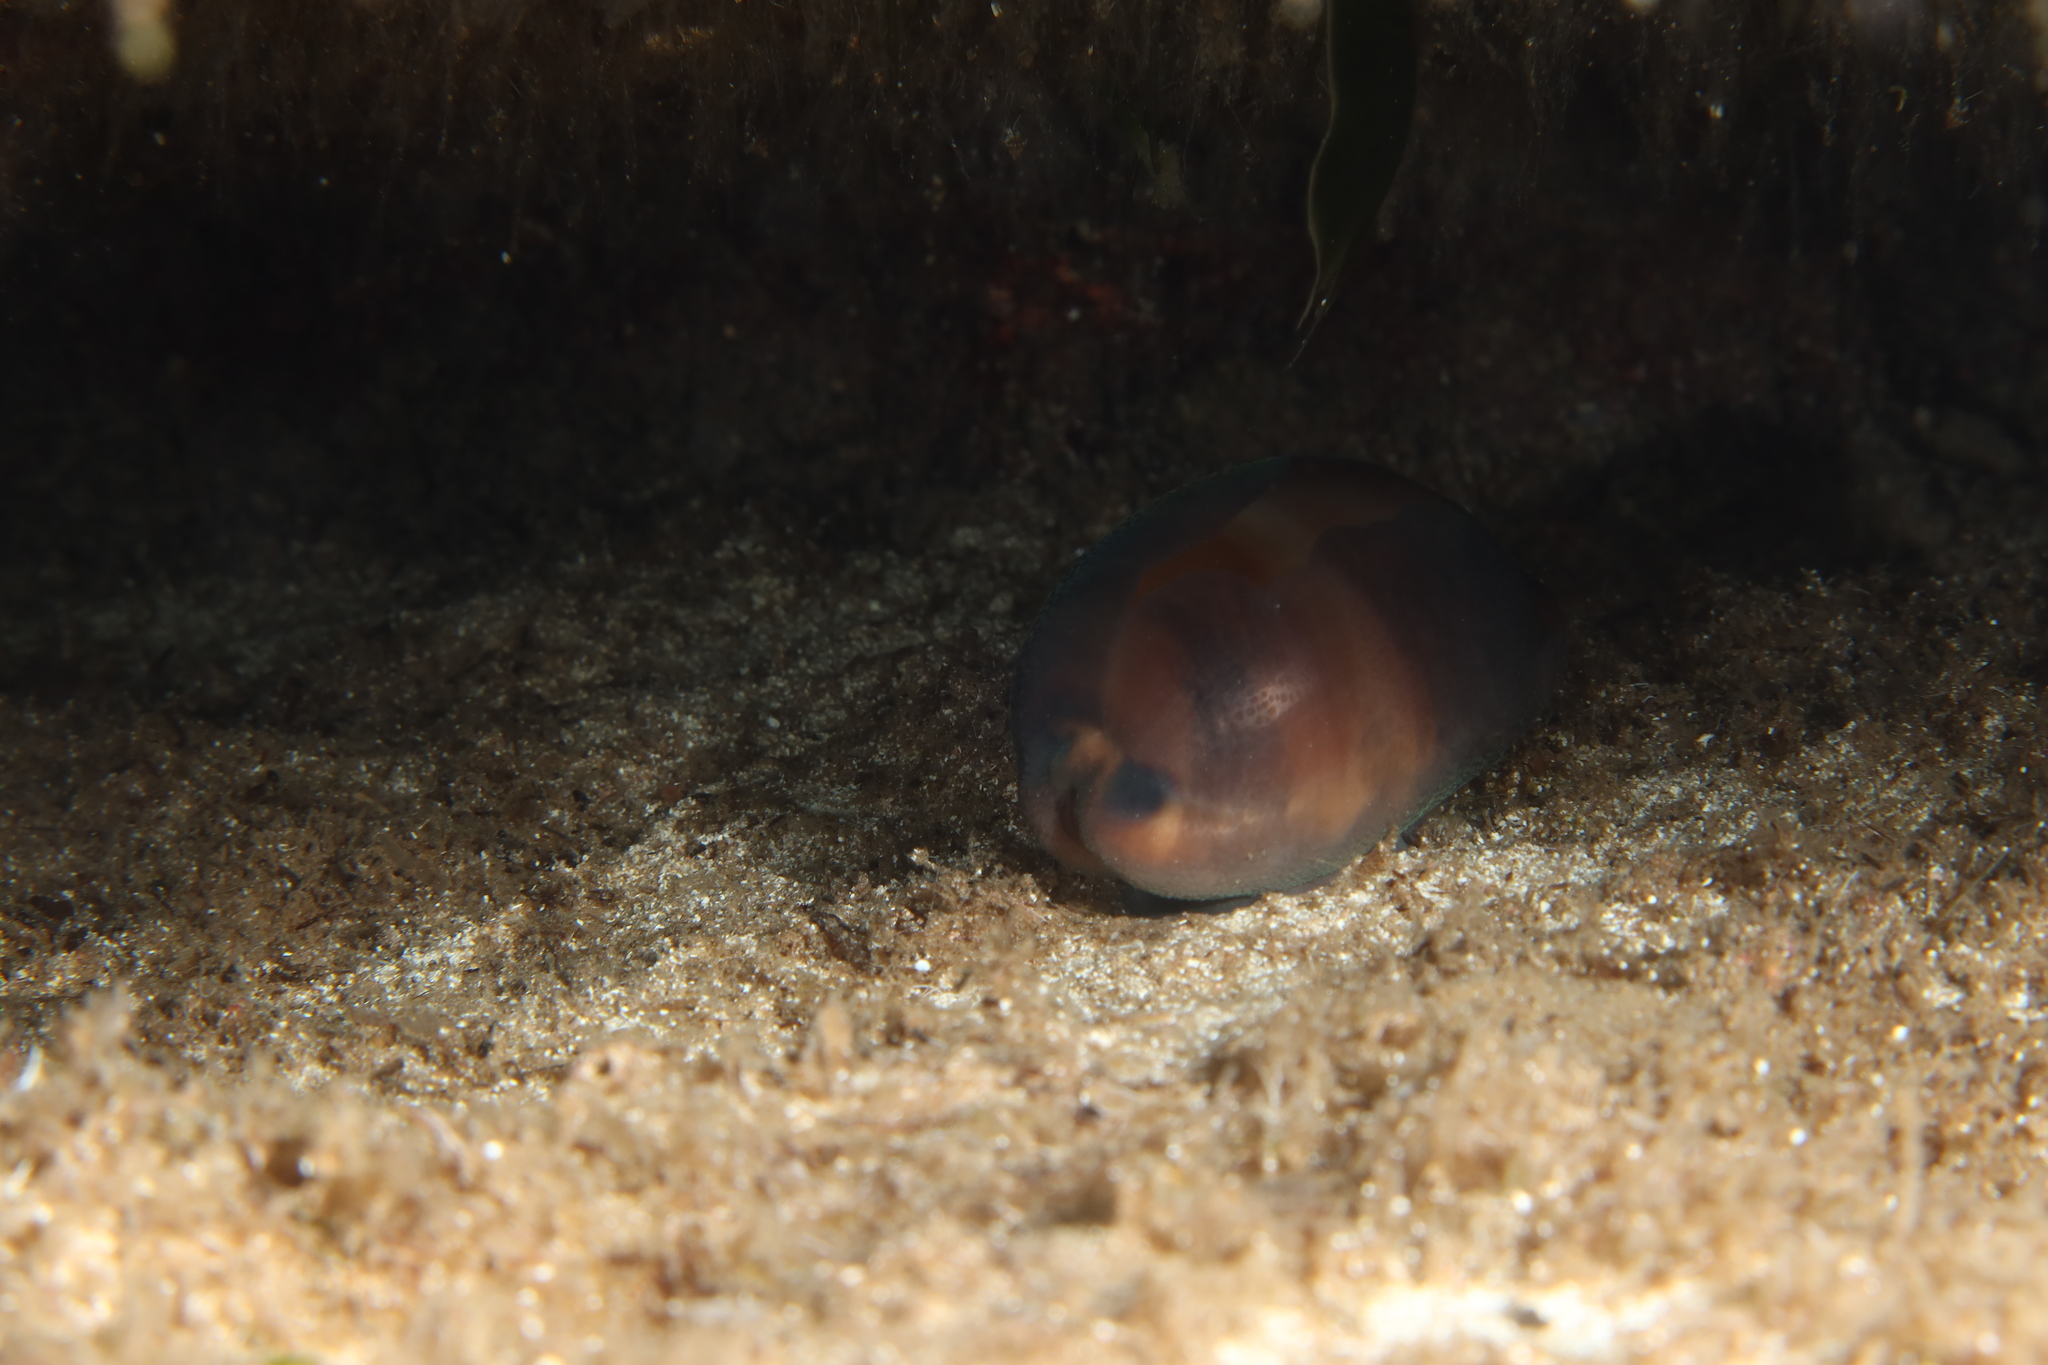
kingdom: Animalia
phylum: Mollusca
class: Gastropoda
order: Littorinimorpha
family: Cypraeidae
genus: Luria
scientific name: Luria lurida
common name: Brown cowry
